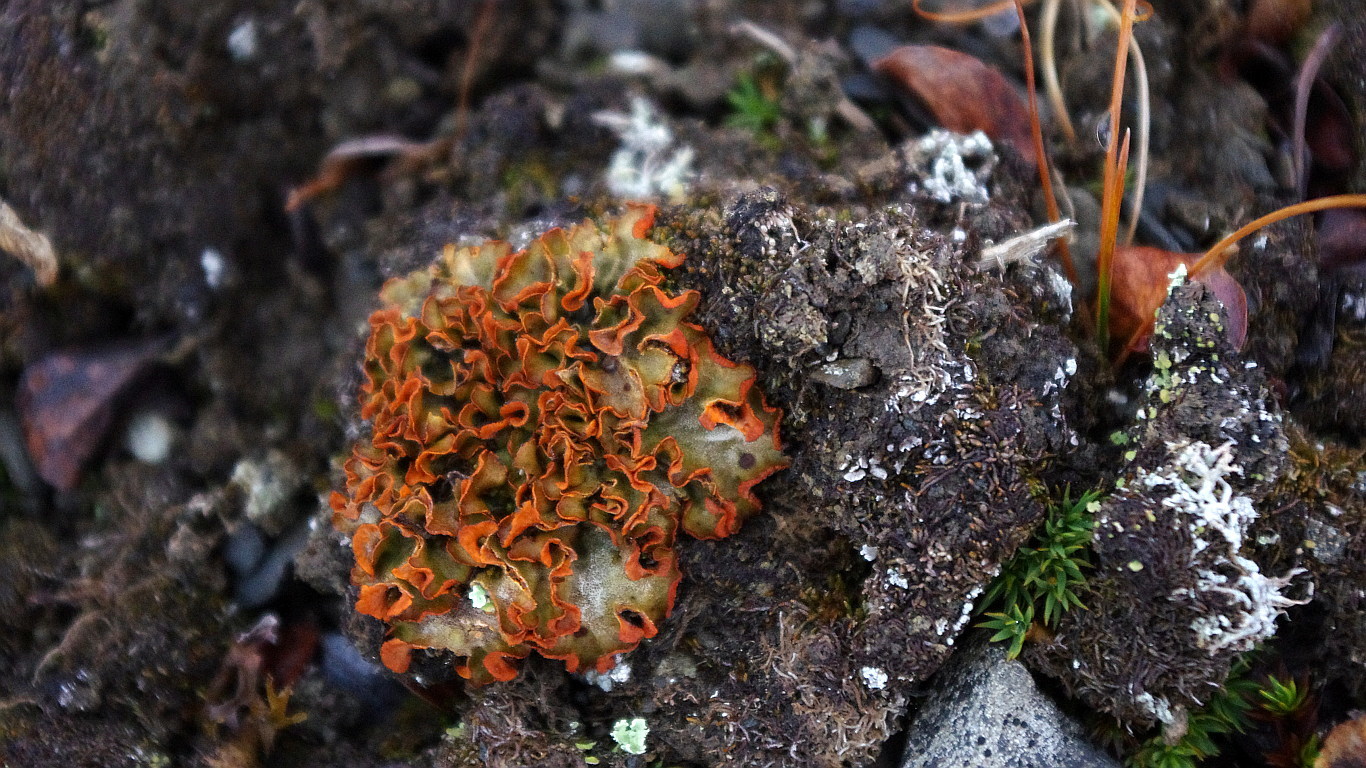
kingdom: Fungi
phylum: Ascomycota
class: Lecanoromycetes
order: Peltigerales
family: Peltigeraceae
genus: Solorina
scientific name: Solorina crocea
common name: Mountain saffron
